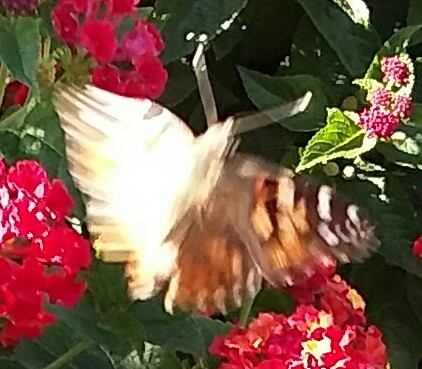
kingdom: Animalia
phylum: Arthropoda
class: Insecta
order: Lepidoptera
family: Nymphalidae
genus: Vanessa
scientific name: Vanessa cardui
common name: Painted lady
